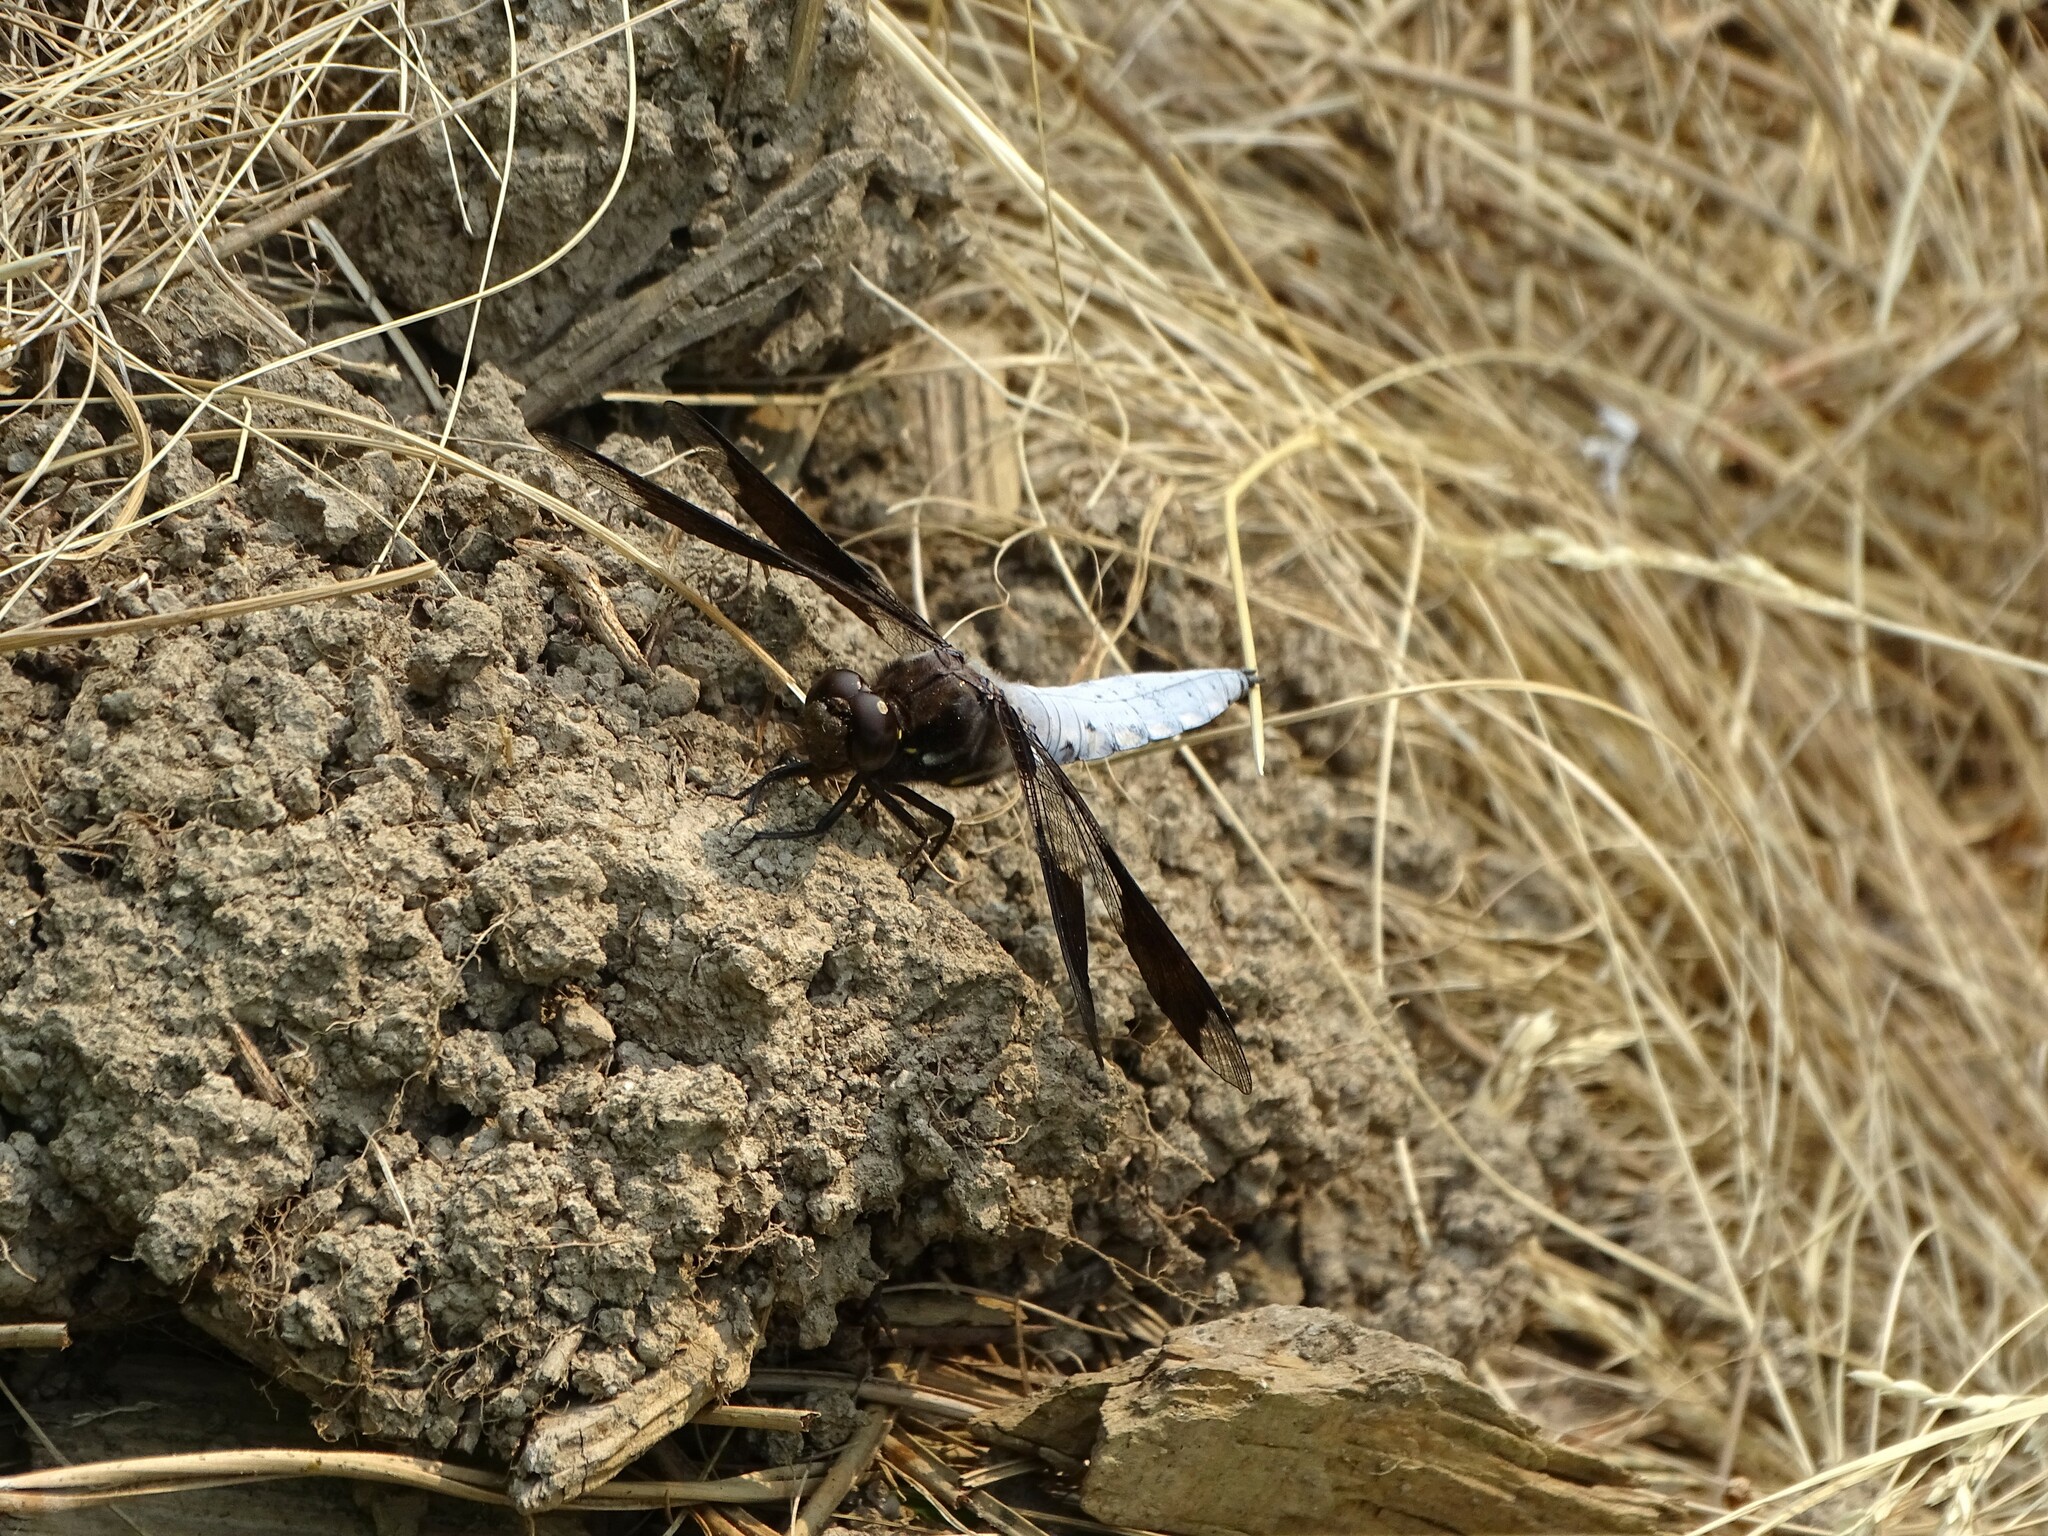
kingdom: Animalia
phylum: Arthropoda
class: Insecta
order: Odonata
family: Libellulidae
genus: Plathemis
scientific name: Plathemis lydia
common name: Common whitetail
